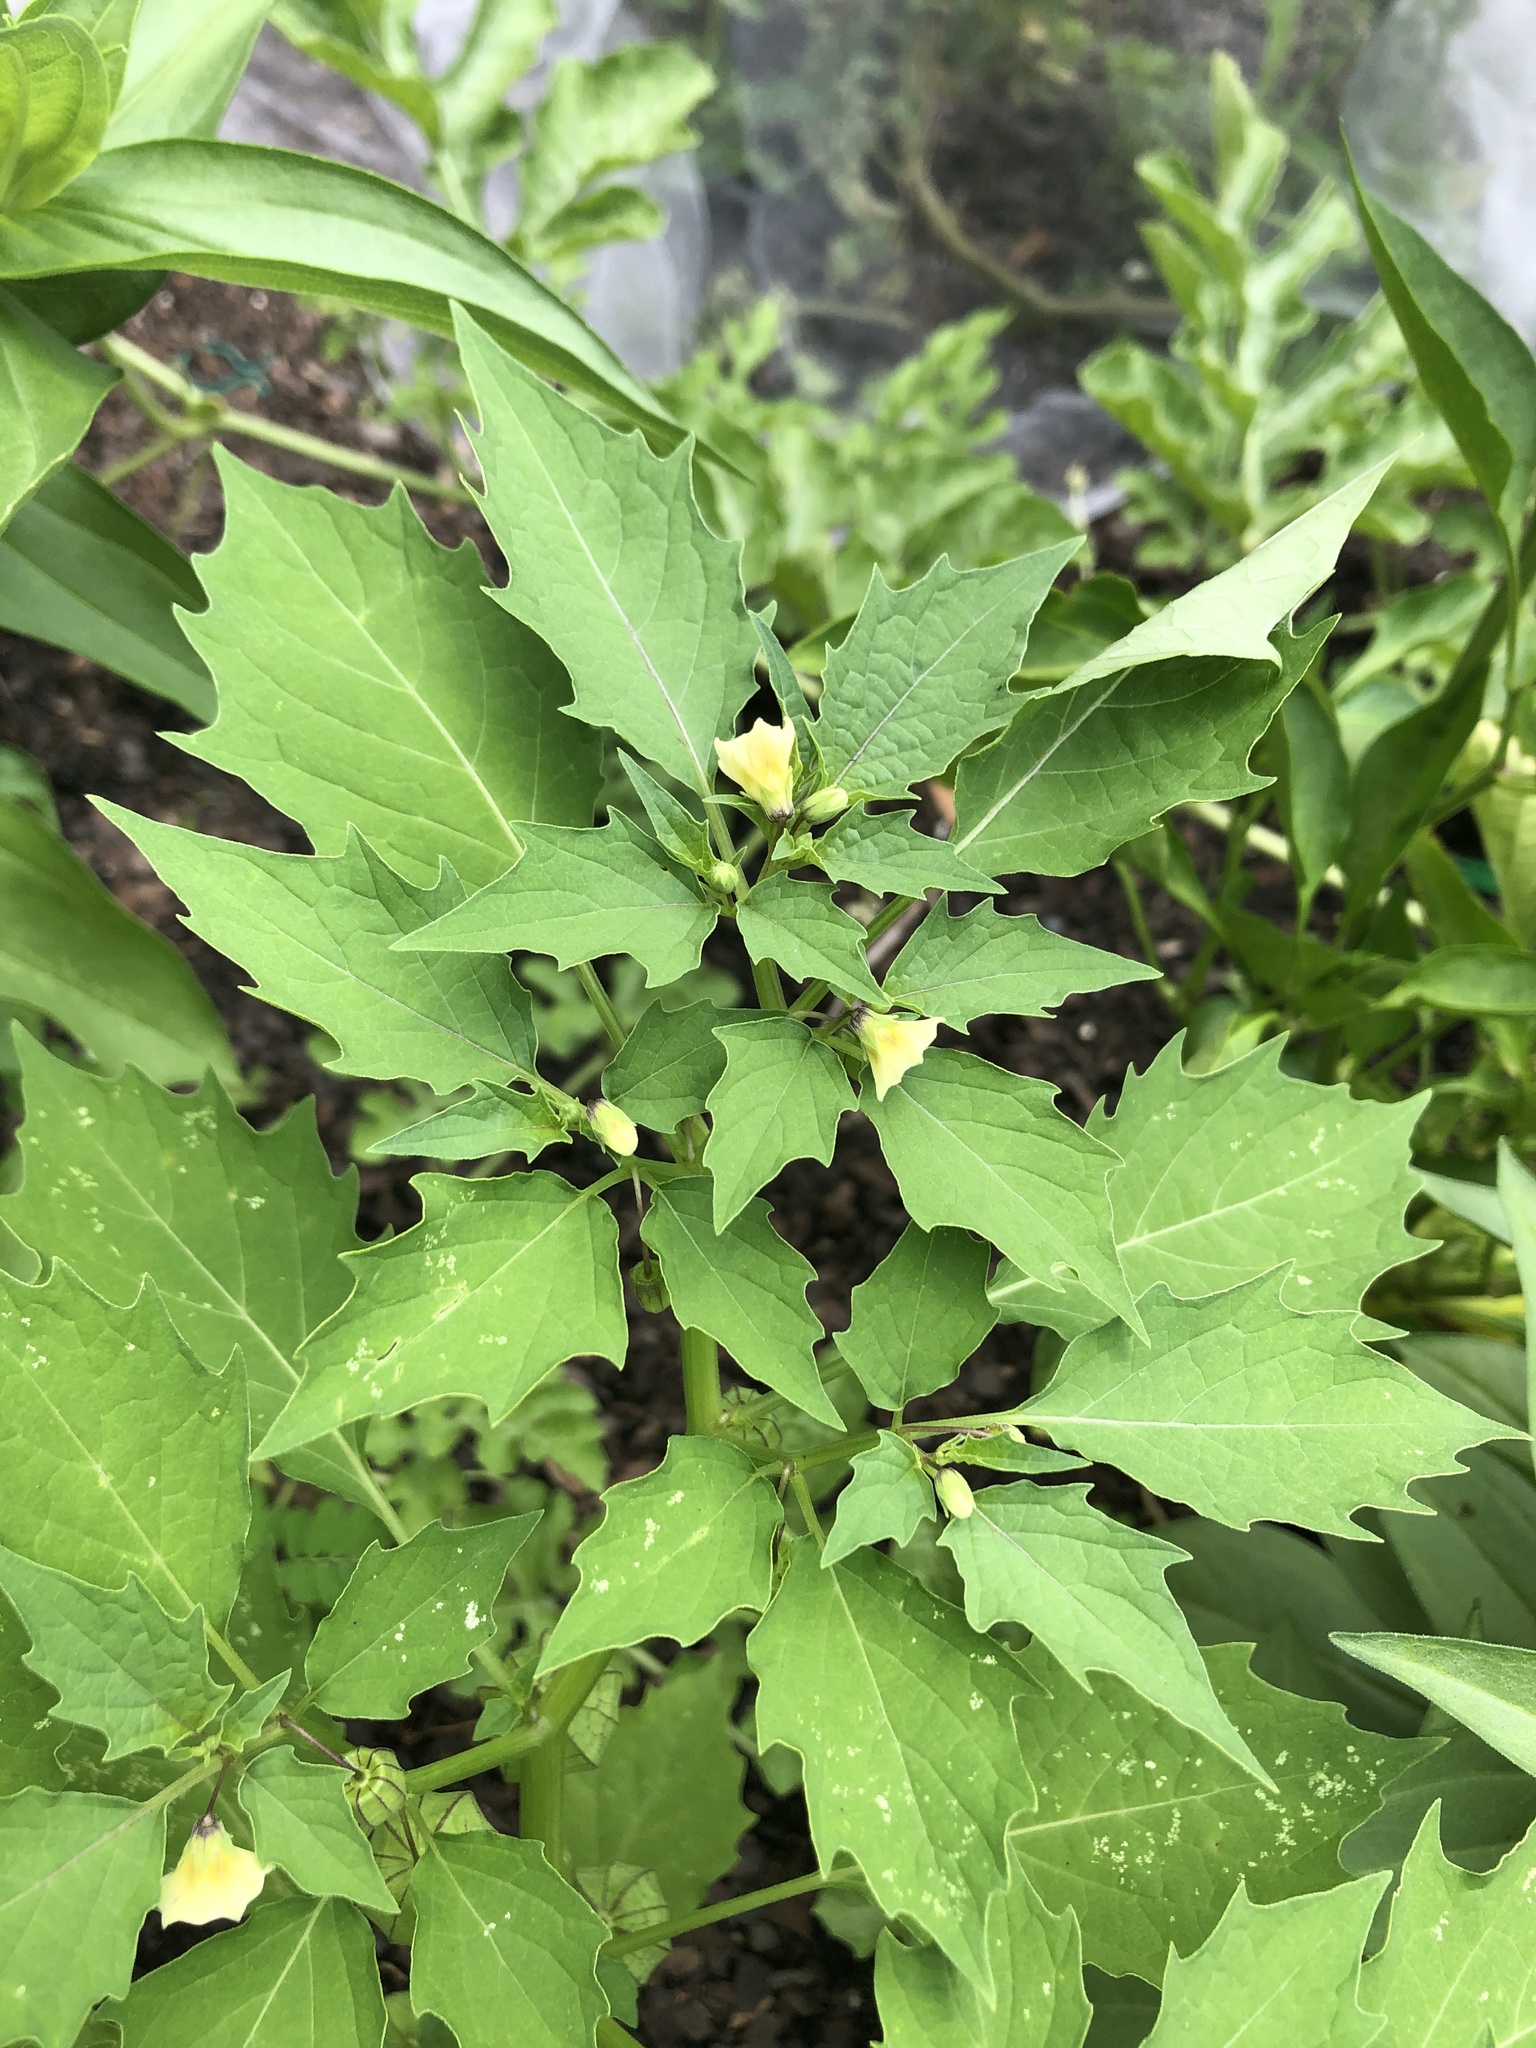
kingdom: Plantae
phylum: Tracheophyta
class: Magnoliopsida
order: Solanales
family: Solanaceae
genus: Physalis
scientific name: Physalis angulata
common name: Angular winter-cherry
